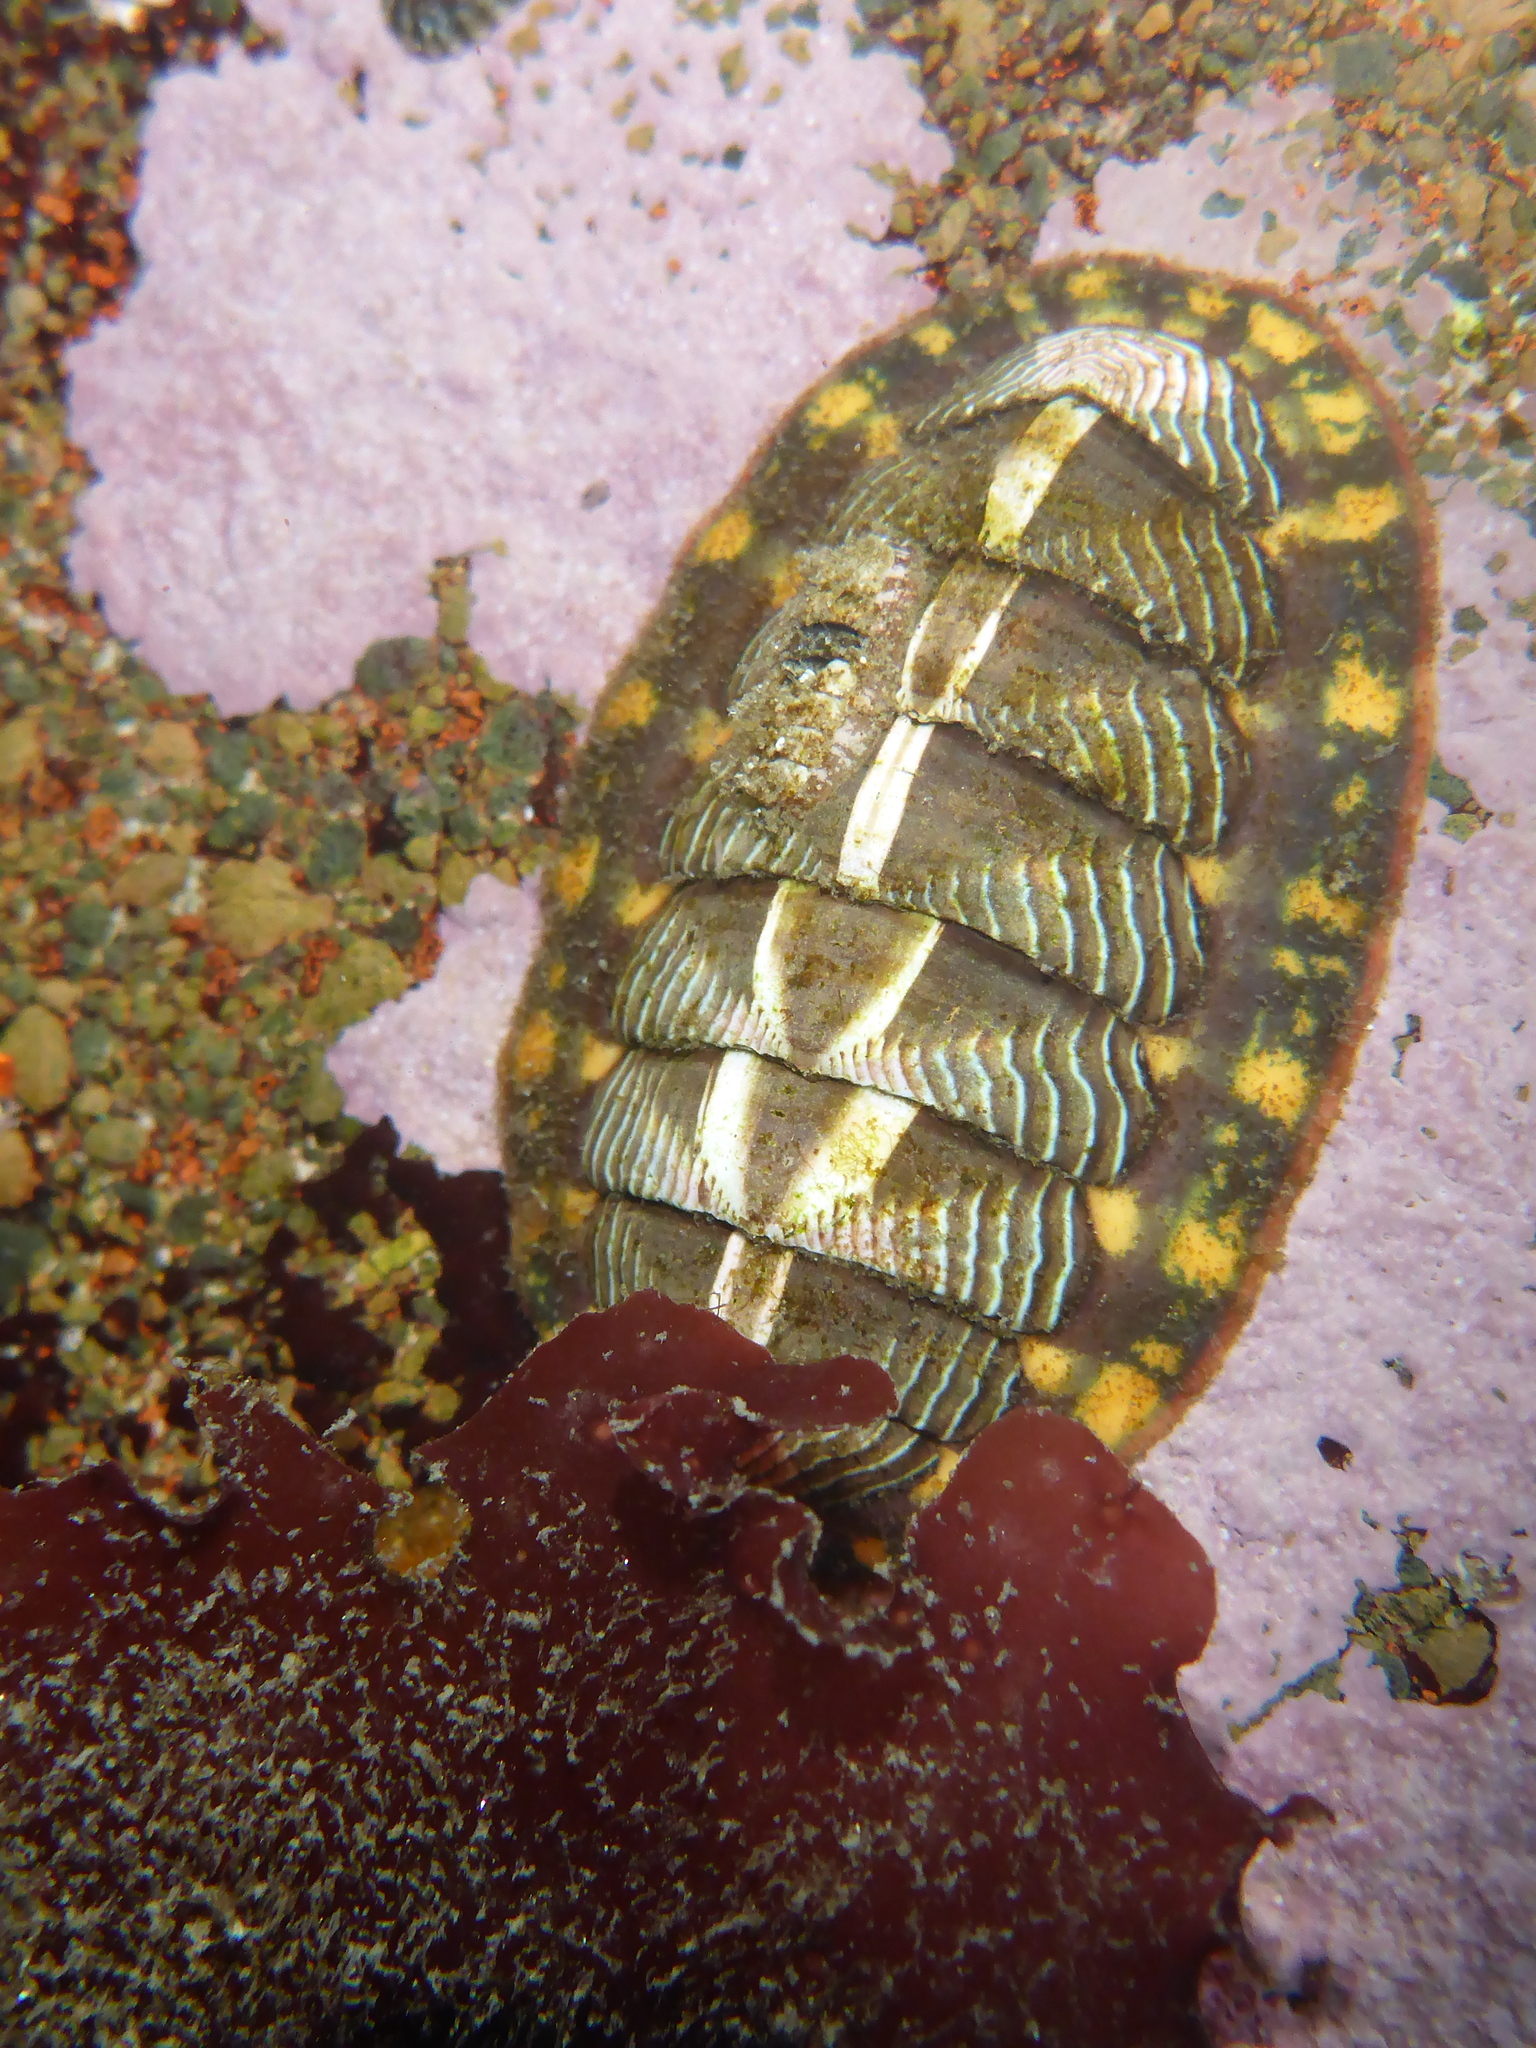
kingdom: Animalia
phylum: Mollusca
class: Polyplacophora
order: Chitonida
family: Tonicellidae
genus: Tonicella
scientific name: Tonicella lineata
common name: Lined chiton
